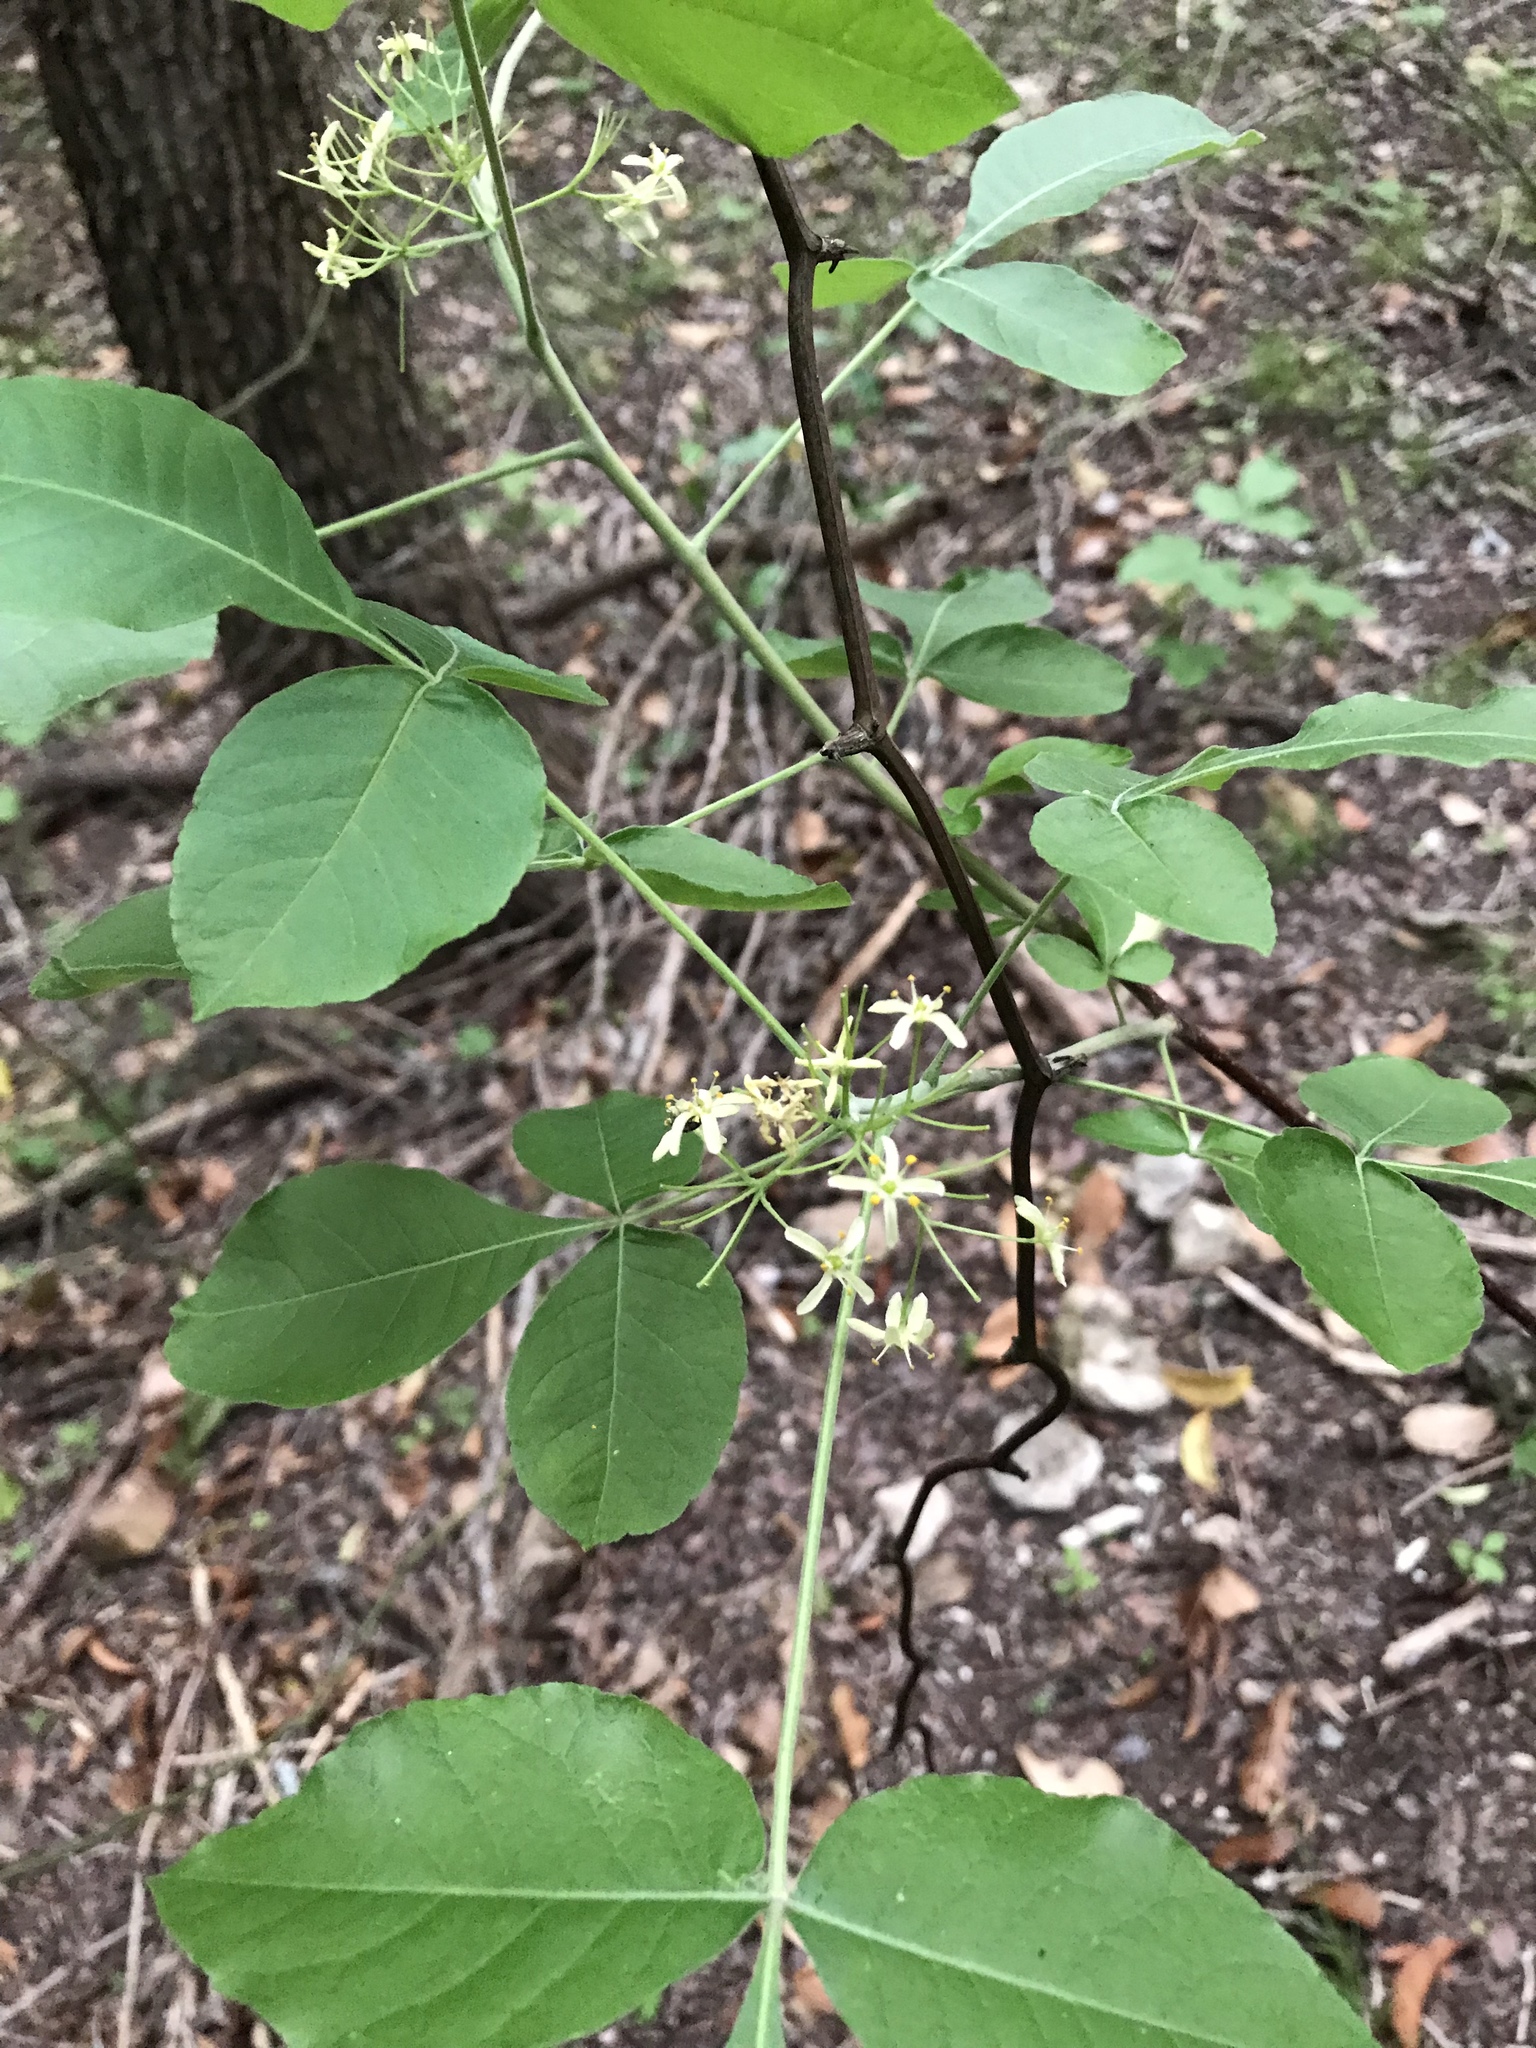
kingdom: Plantae
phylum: Tracheophyta
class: Magnoliopsida
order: Sapindales
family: Rutaceae
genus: Ptelea
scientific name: Ptelea trifoliata
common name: Common hop-tree
